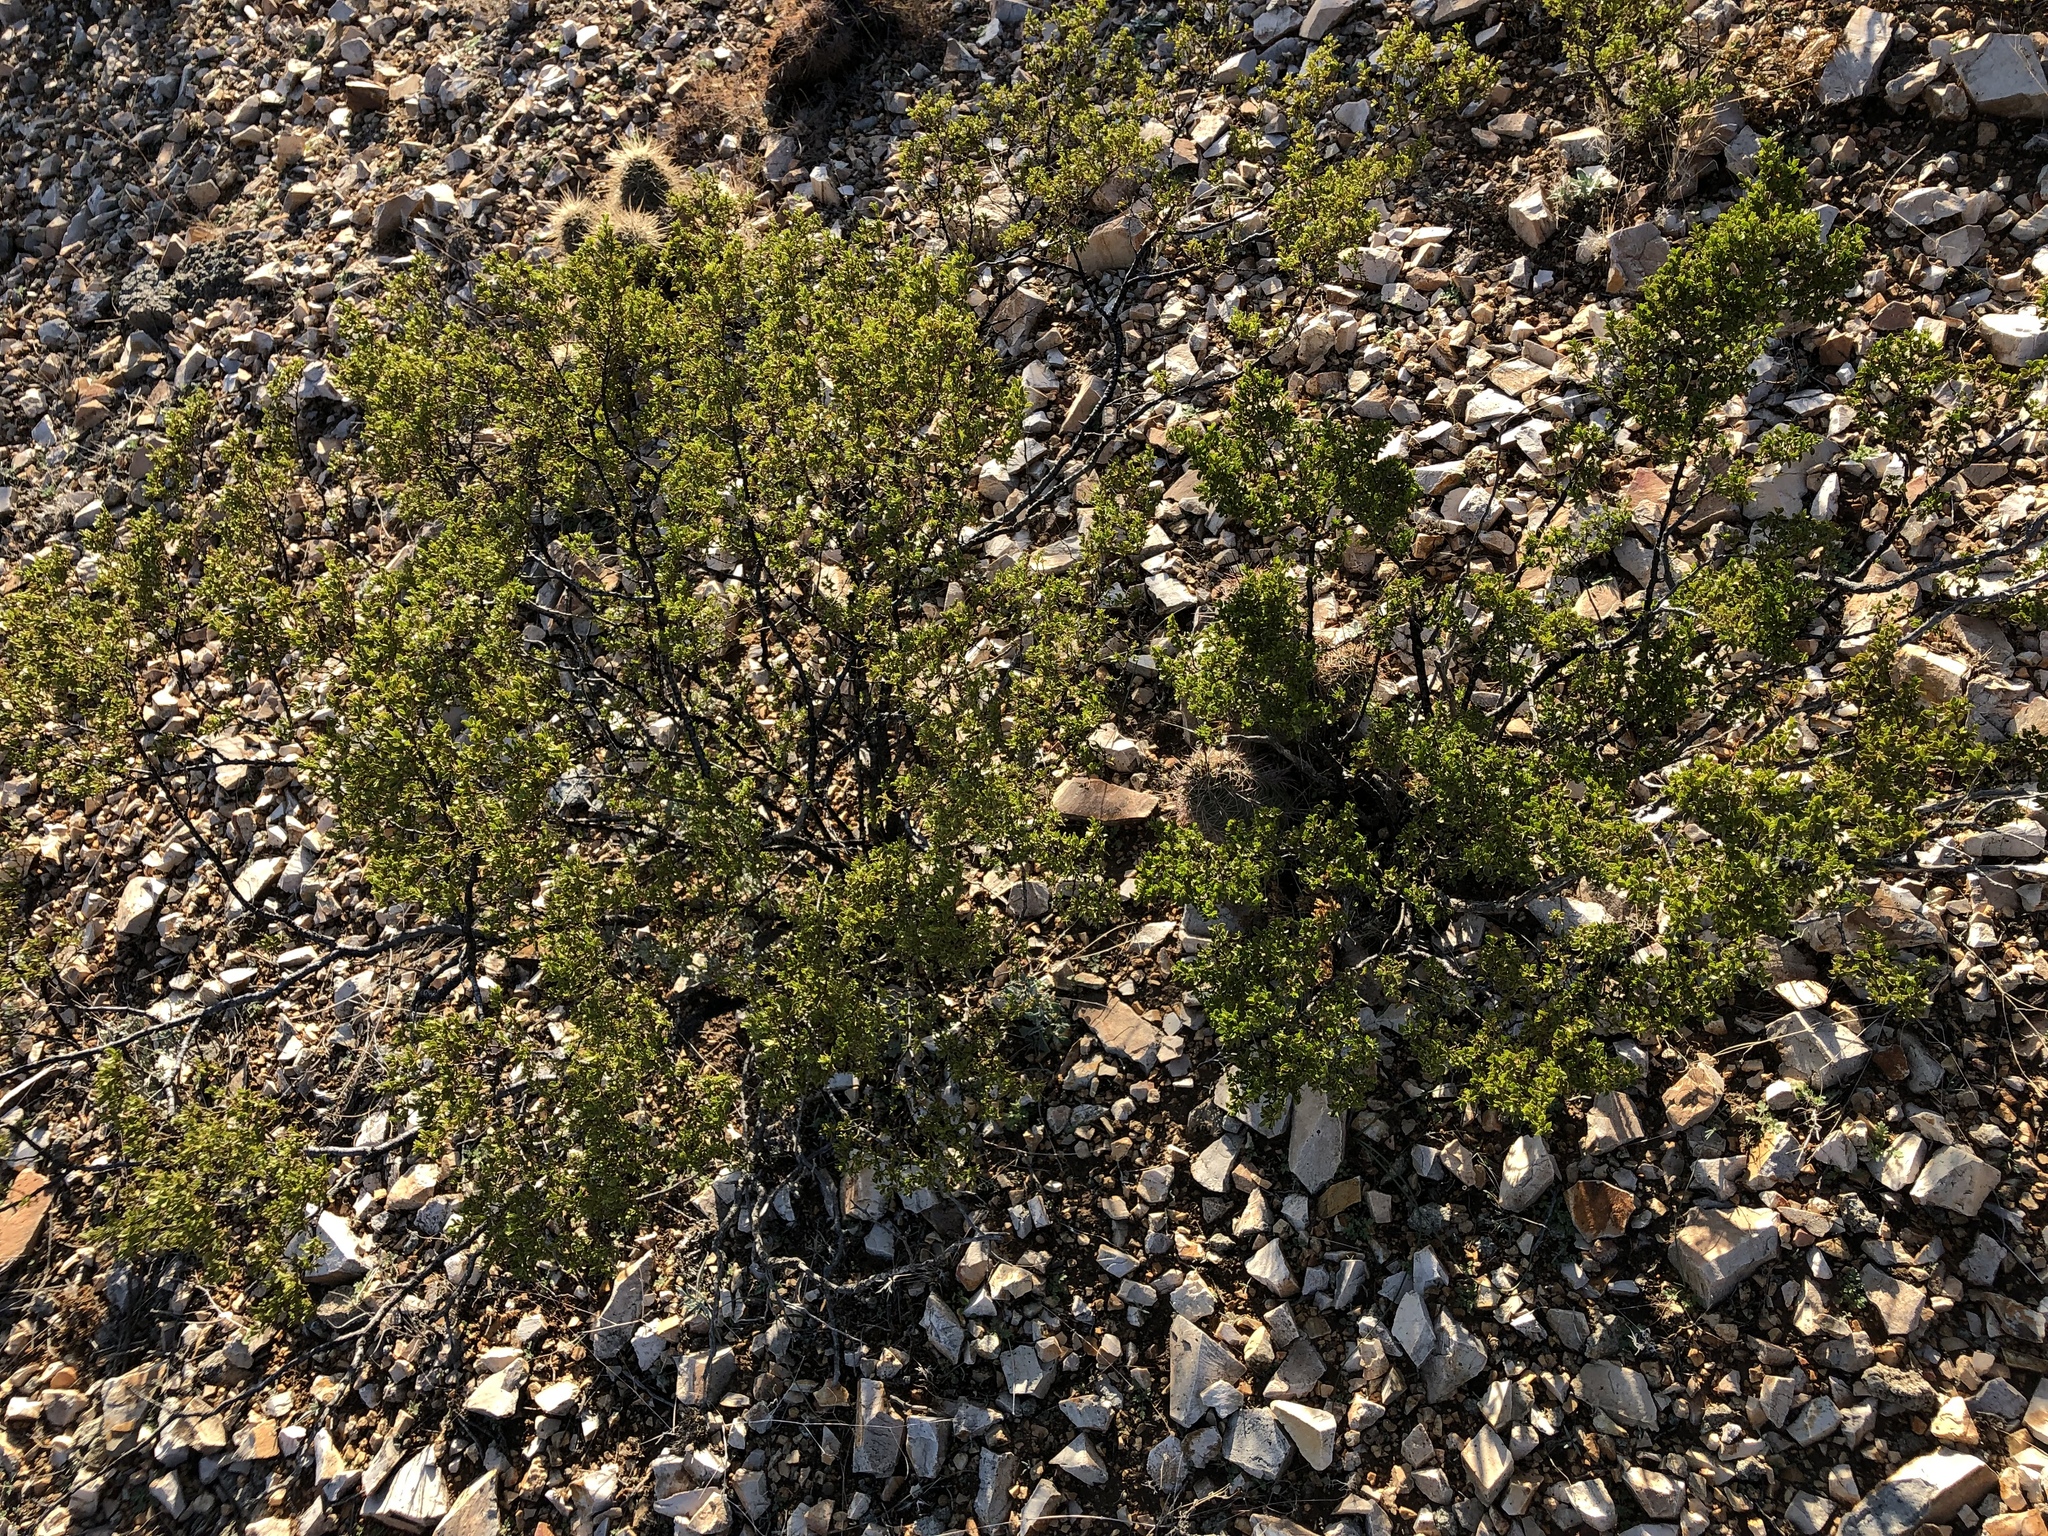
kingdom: Plantae
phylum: Tracheophyta
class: Magnoliopsida
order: Zygophyllales
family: Zygophyllaceae
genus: Larrea
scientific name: Larrea tridentata
